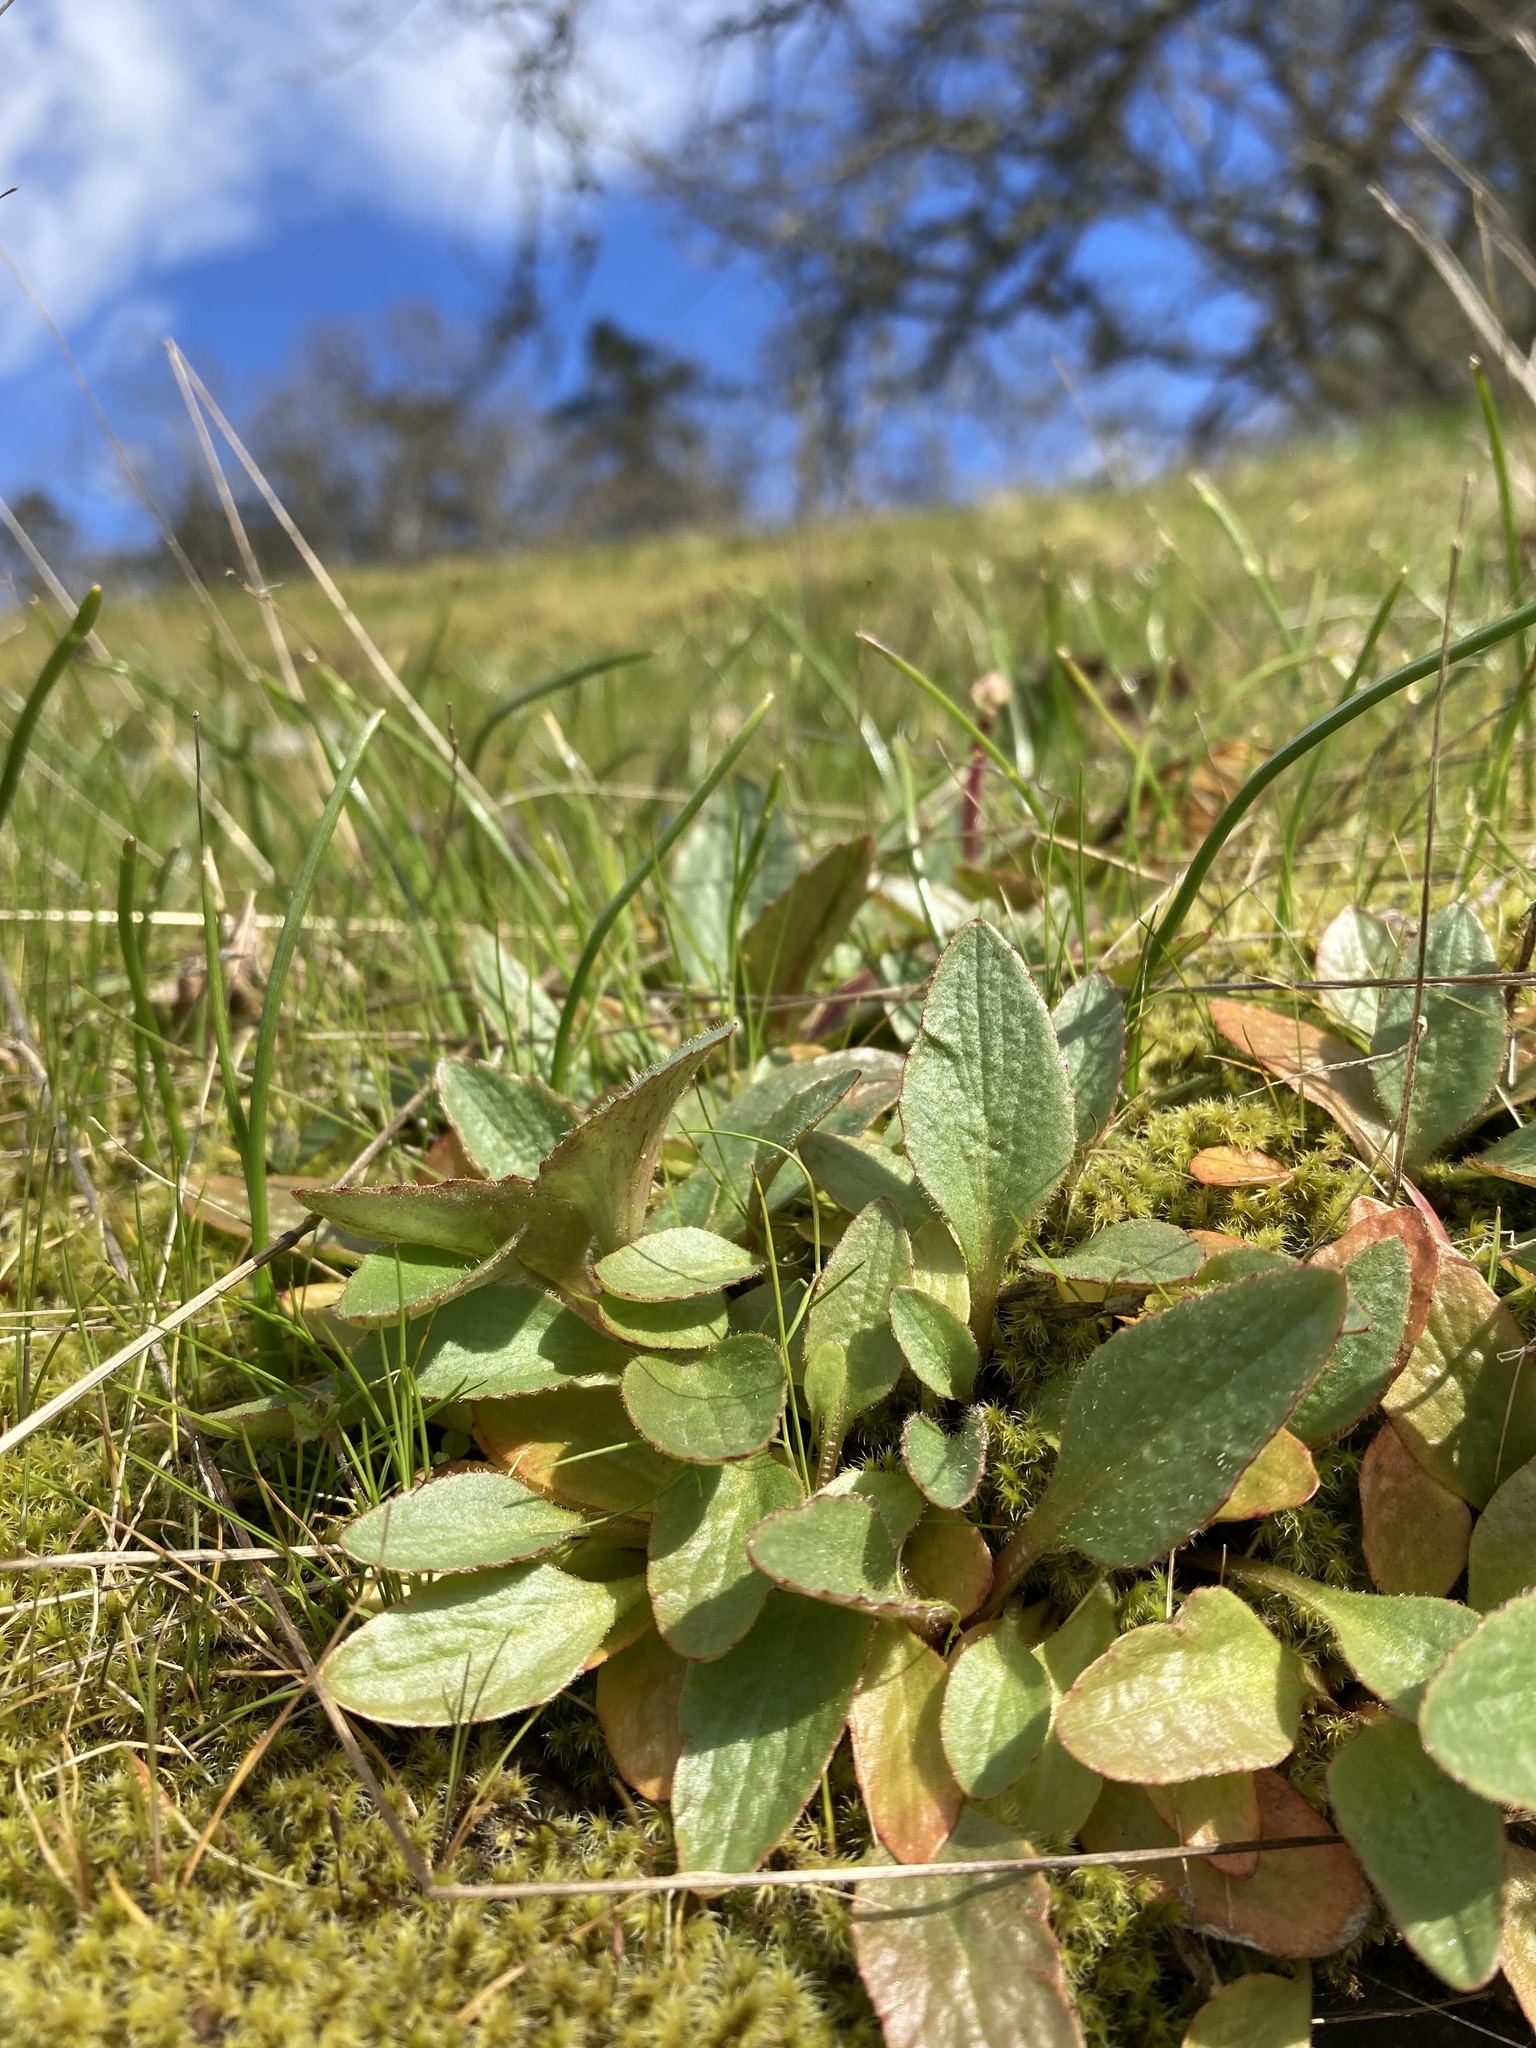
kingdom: Plantae
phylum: Tracheophyta
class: Magnoliopsida
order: Saxifragales
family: Saxifragaceae
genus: Micranthes
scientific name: Micranthes integrifolia
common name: Wholeleaf saxifrage
